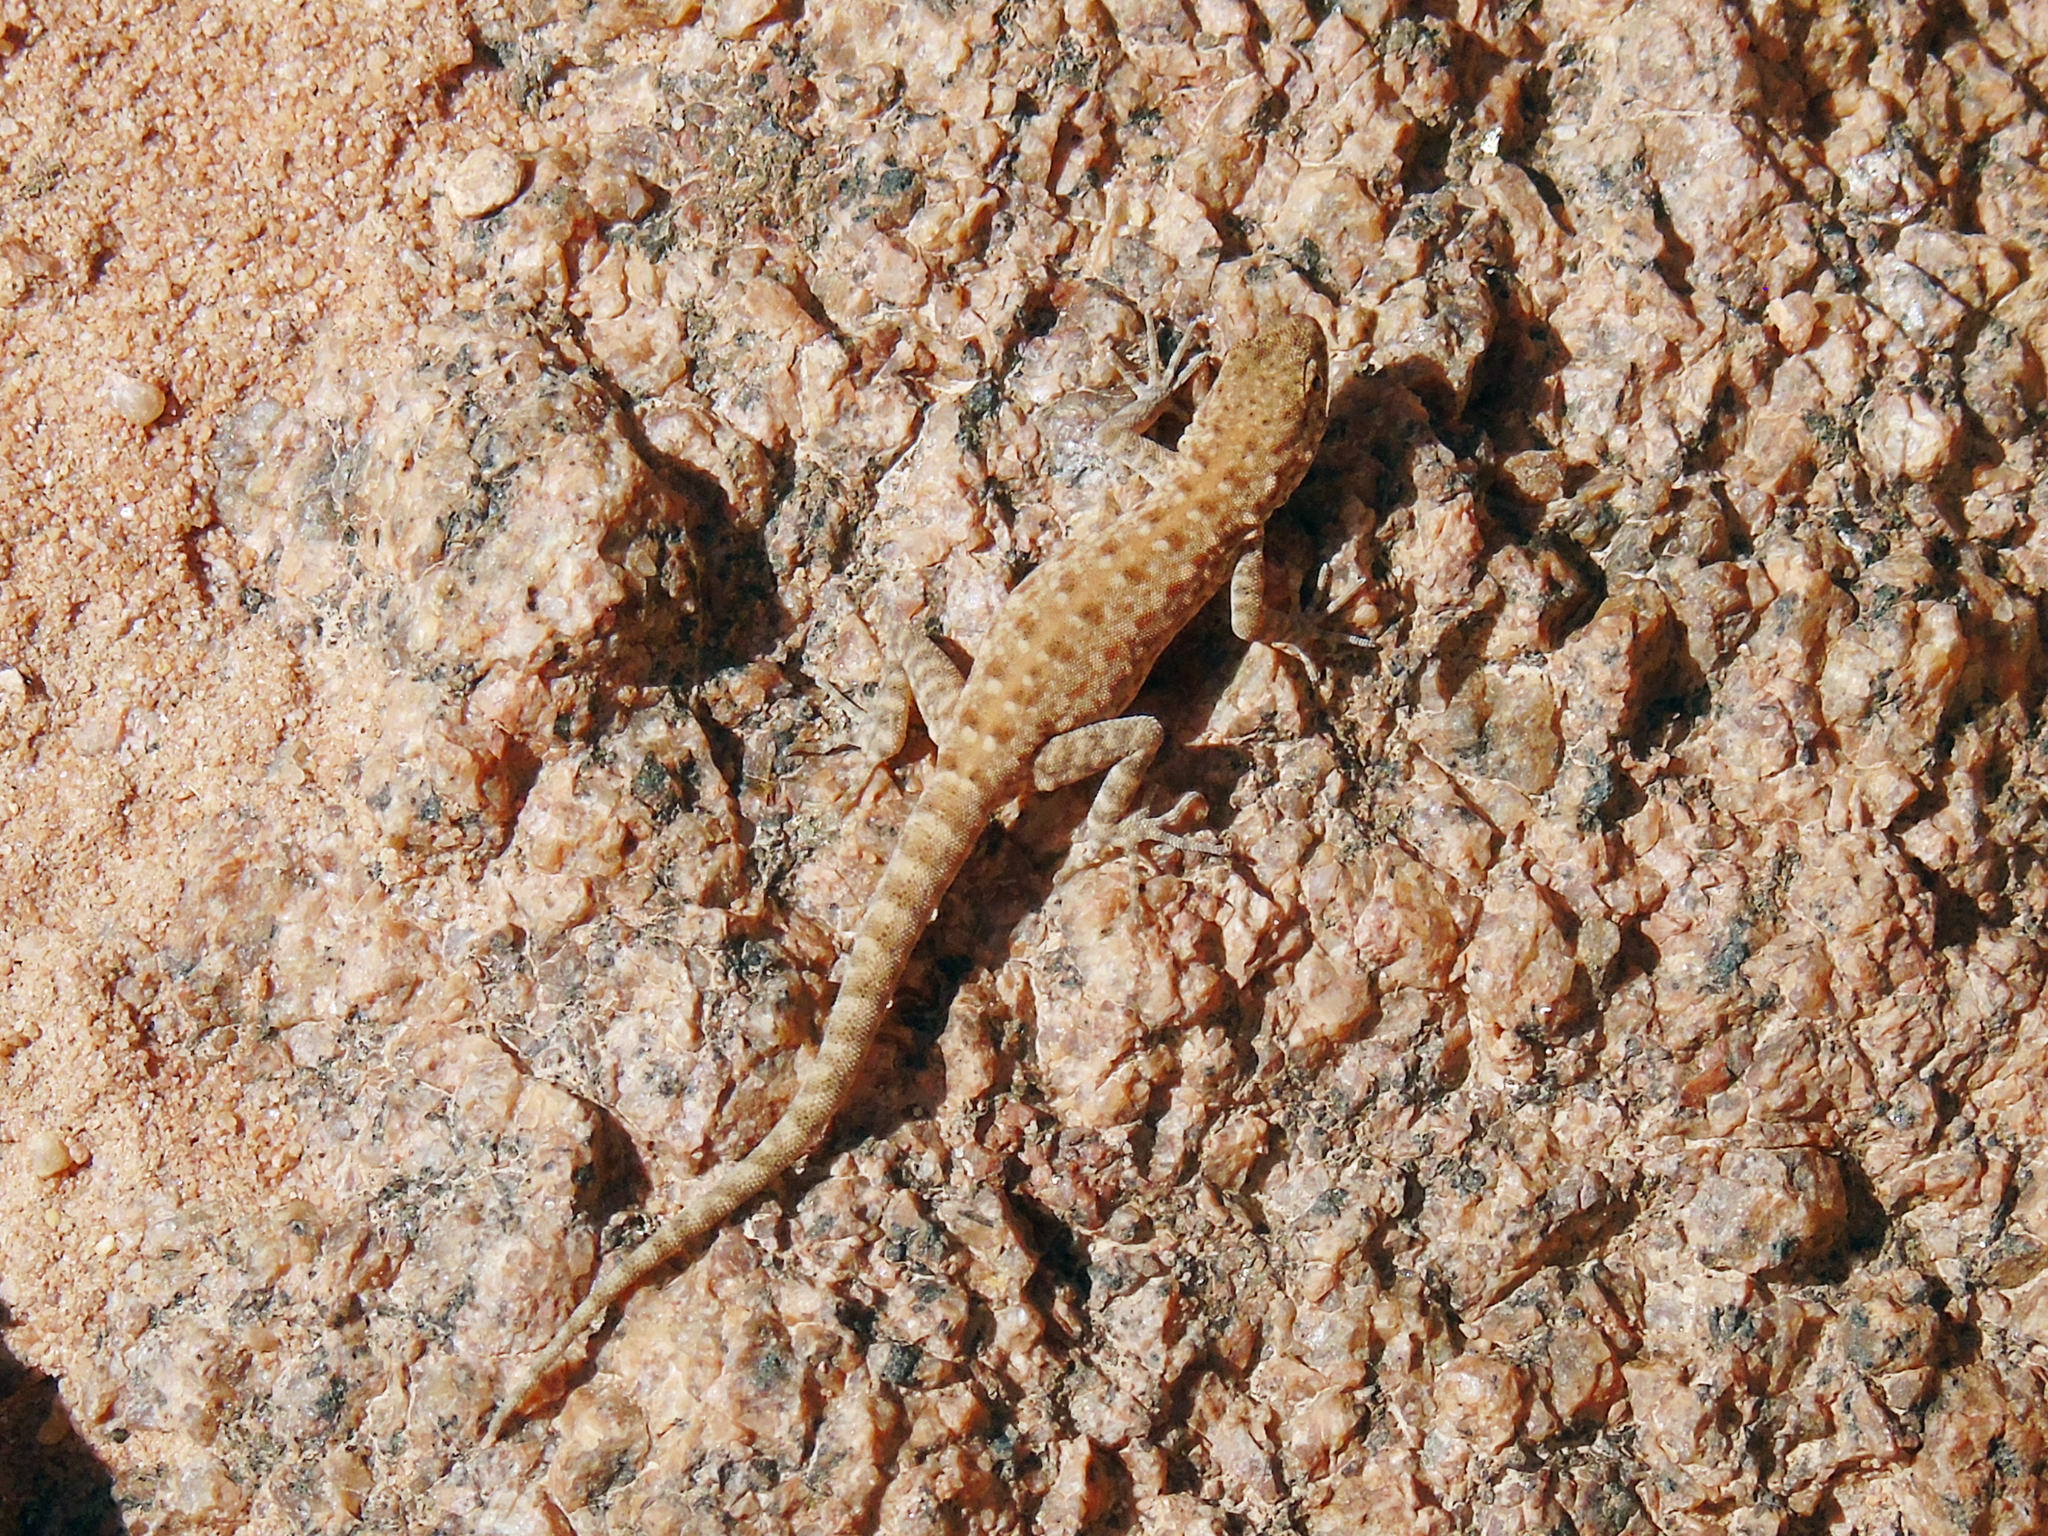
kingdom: Animalia
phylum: Chordata
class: Squamata
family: Sphaerodactylidae
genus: Pristurus
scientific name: Pristurus rupestris
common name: Blanford’s semaphore gecko
